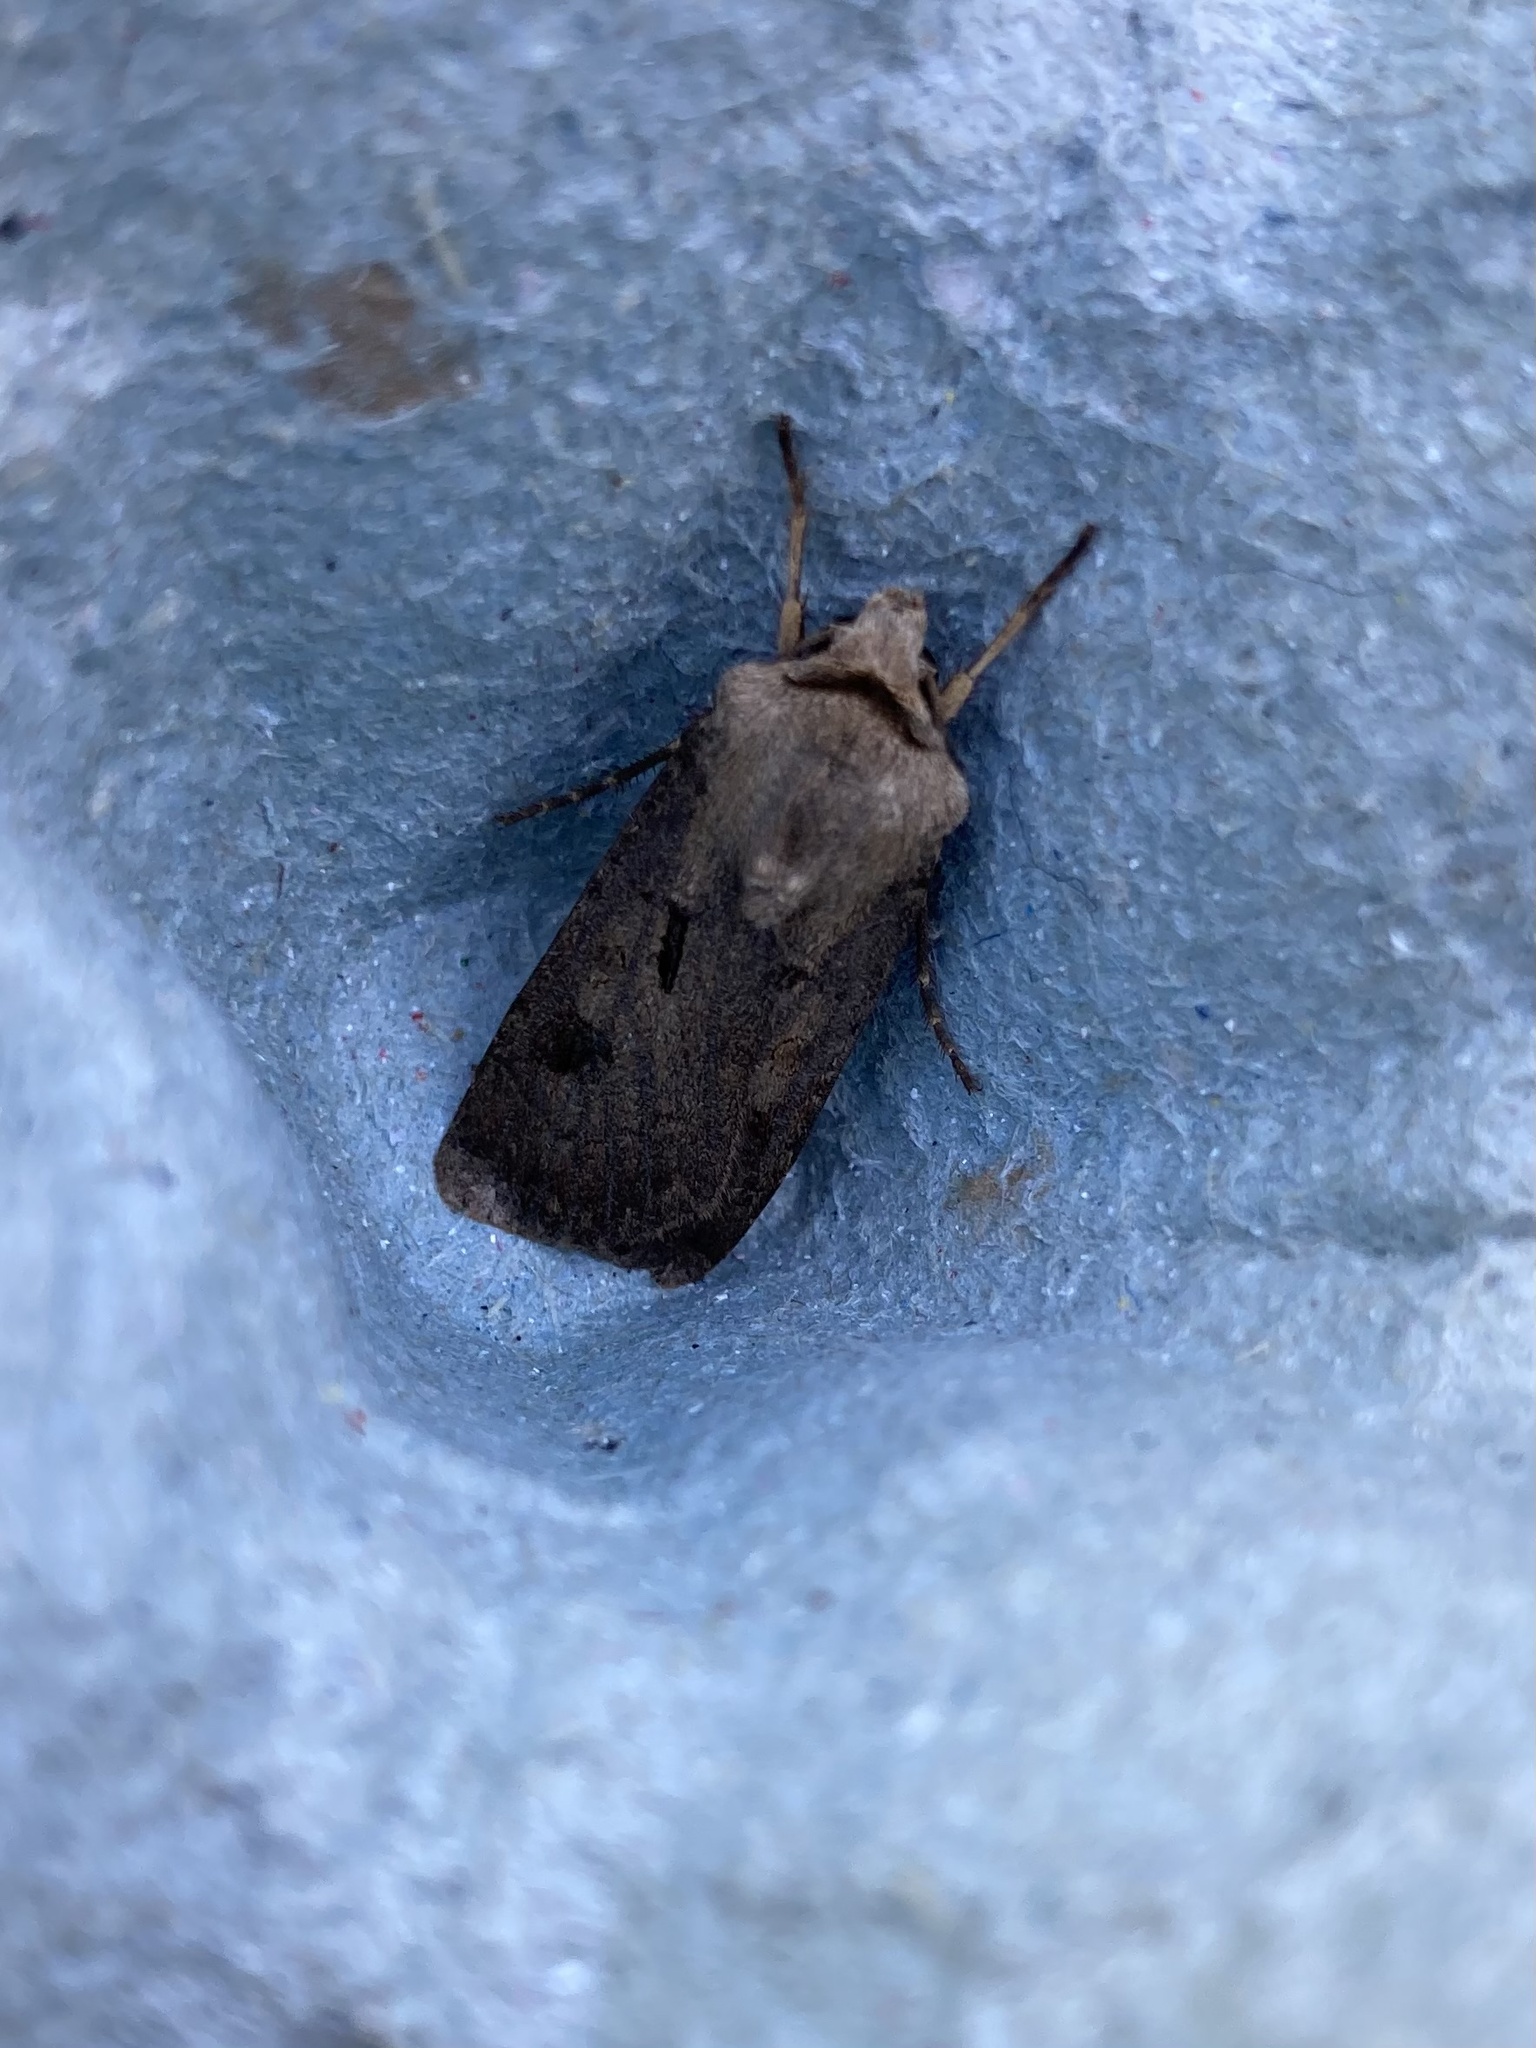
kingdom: Animalia
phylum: Arthropoda
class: Insecta
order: Lepidoptera
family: Noctuidae
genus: Agrotis
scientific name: Agrotis exclamationis
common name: Heart and dart
